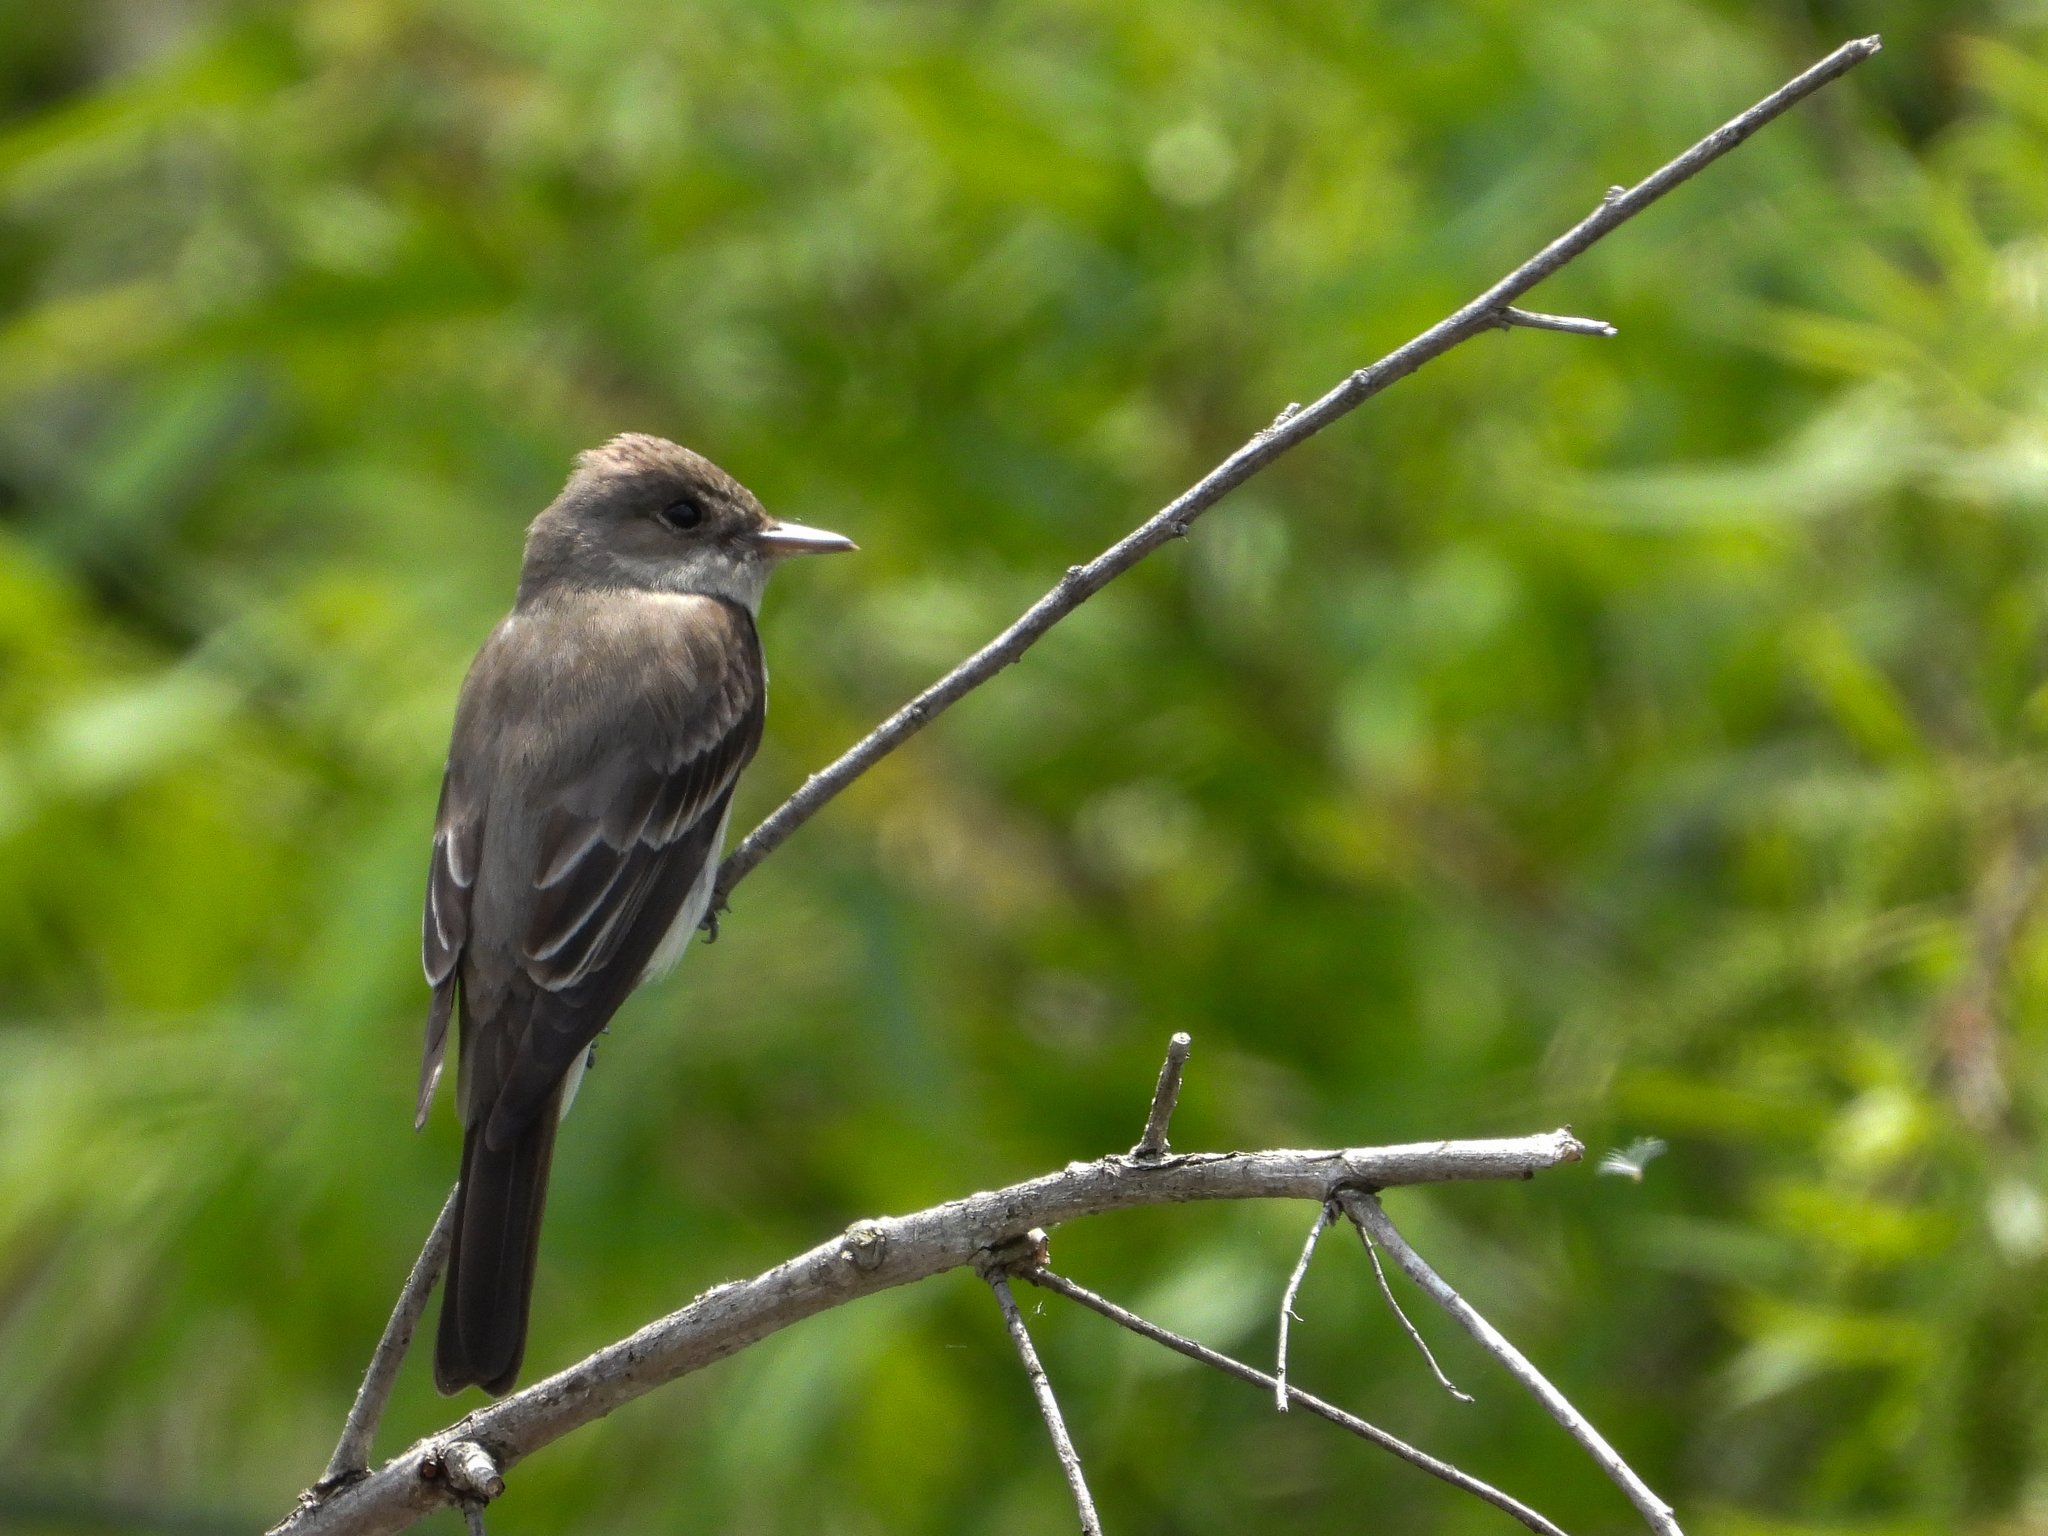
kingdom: Animalia
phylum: Chordata
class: Aves
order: Passeriformes
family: Tyrannidae
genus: Contopus
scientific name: Contopus sordidulus
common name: Western wood-pewee
